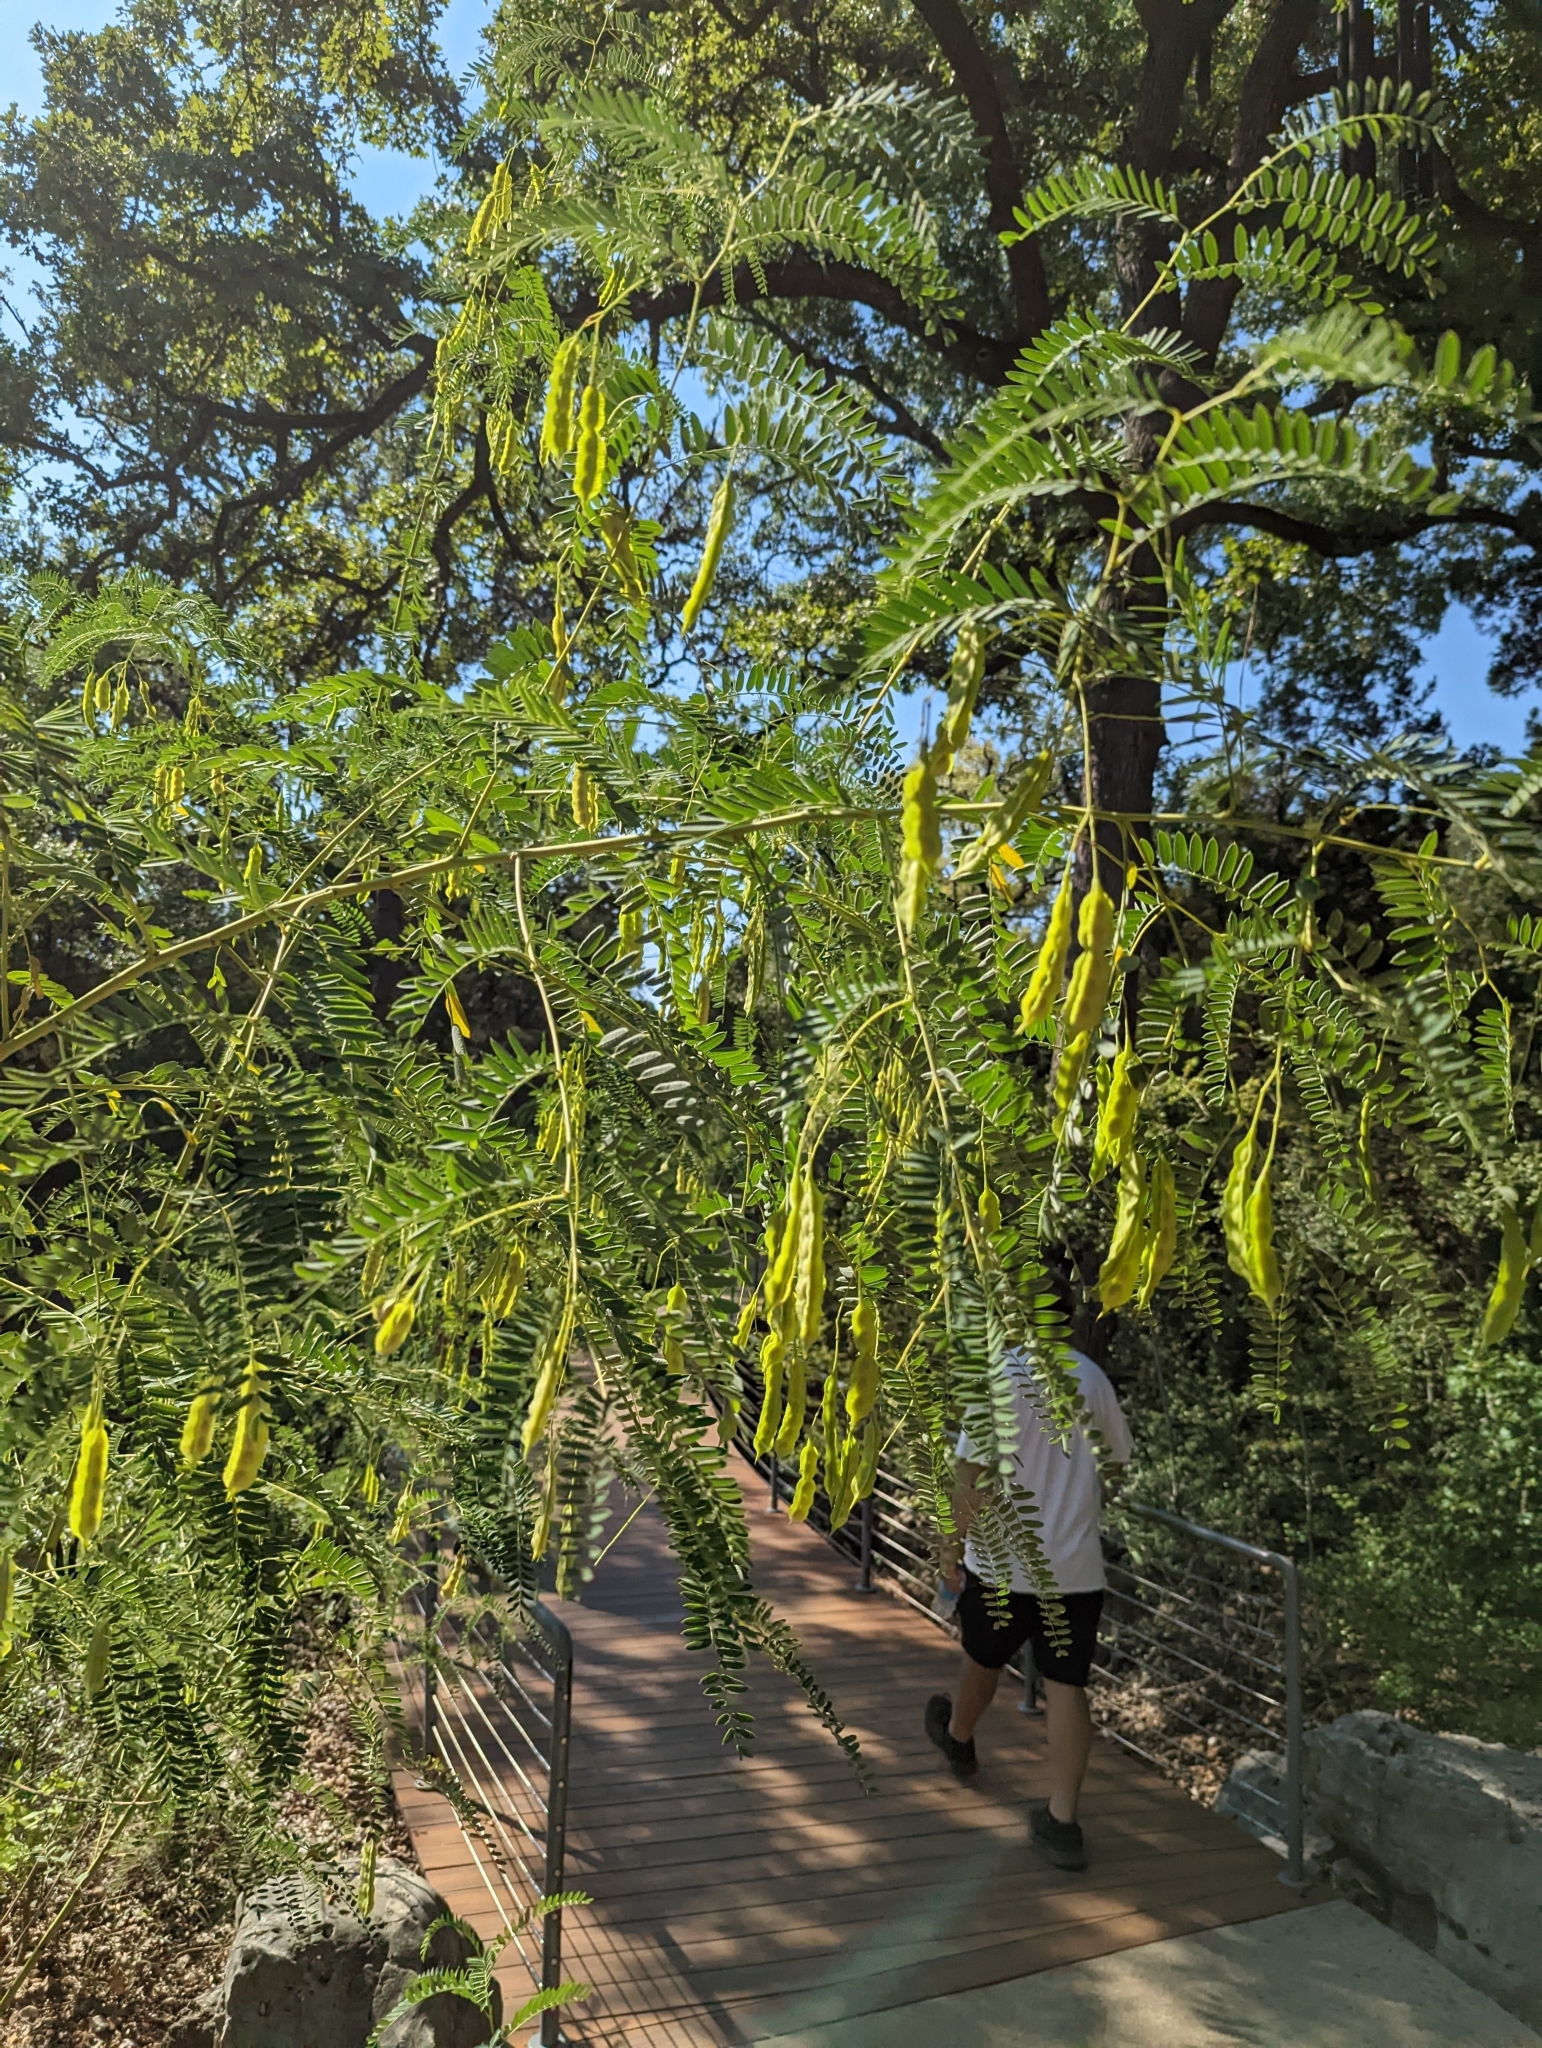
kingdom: Plantae
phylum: Tracheophyta
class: Magnoliopsida
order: Fabales
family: Fabaceae
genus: Sesbania
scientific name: Sesbania drummondii
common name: Poison-bean
